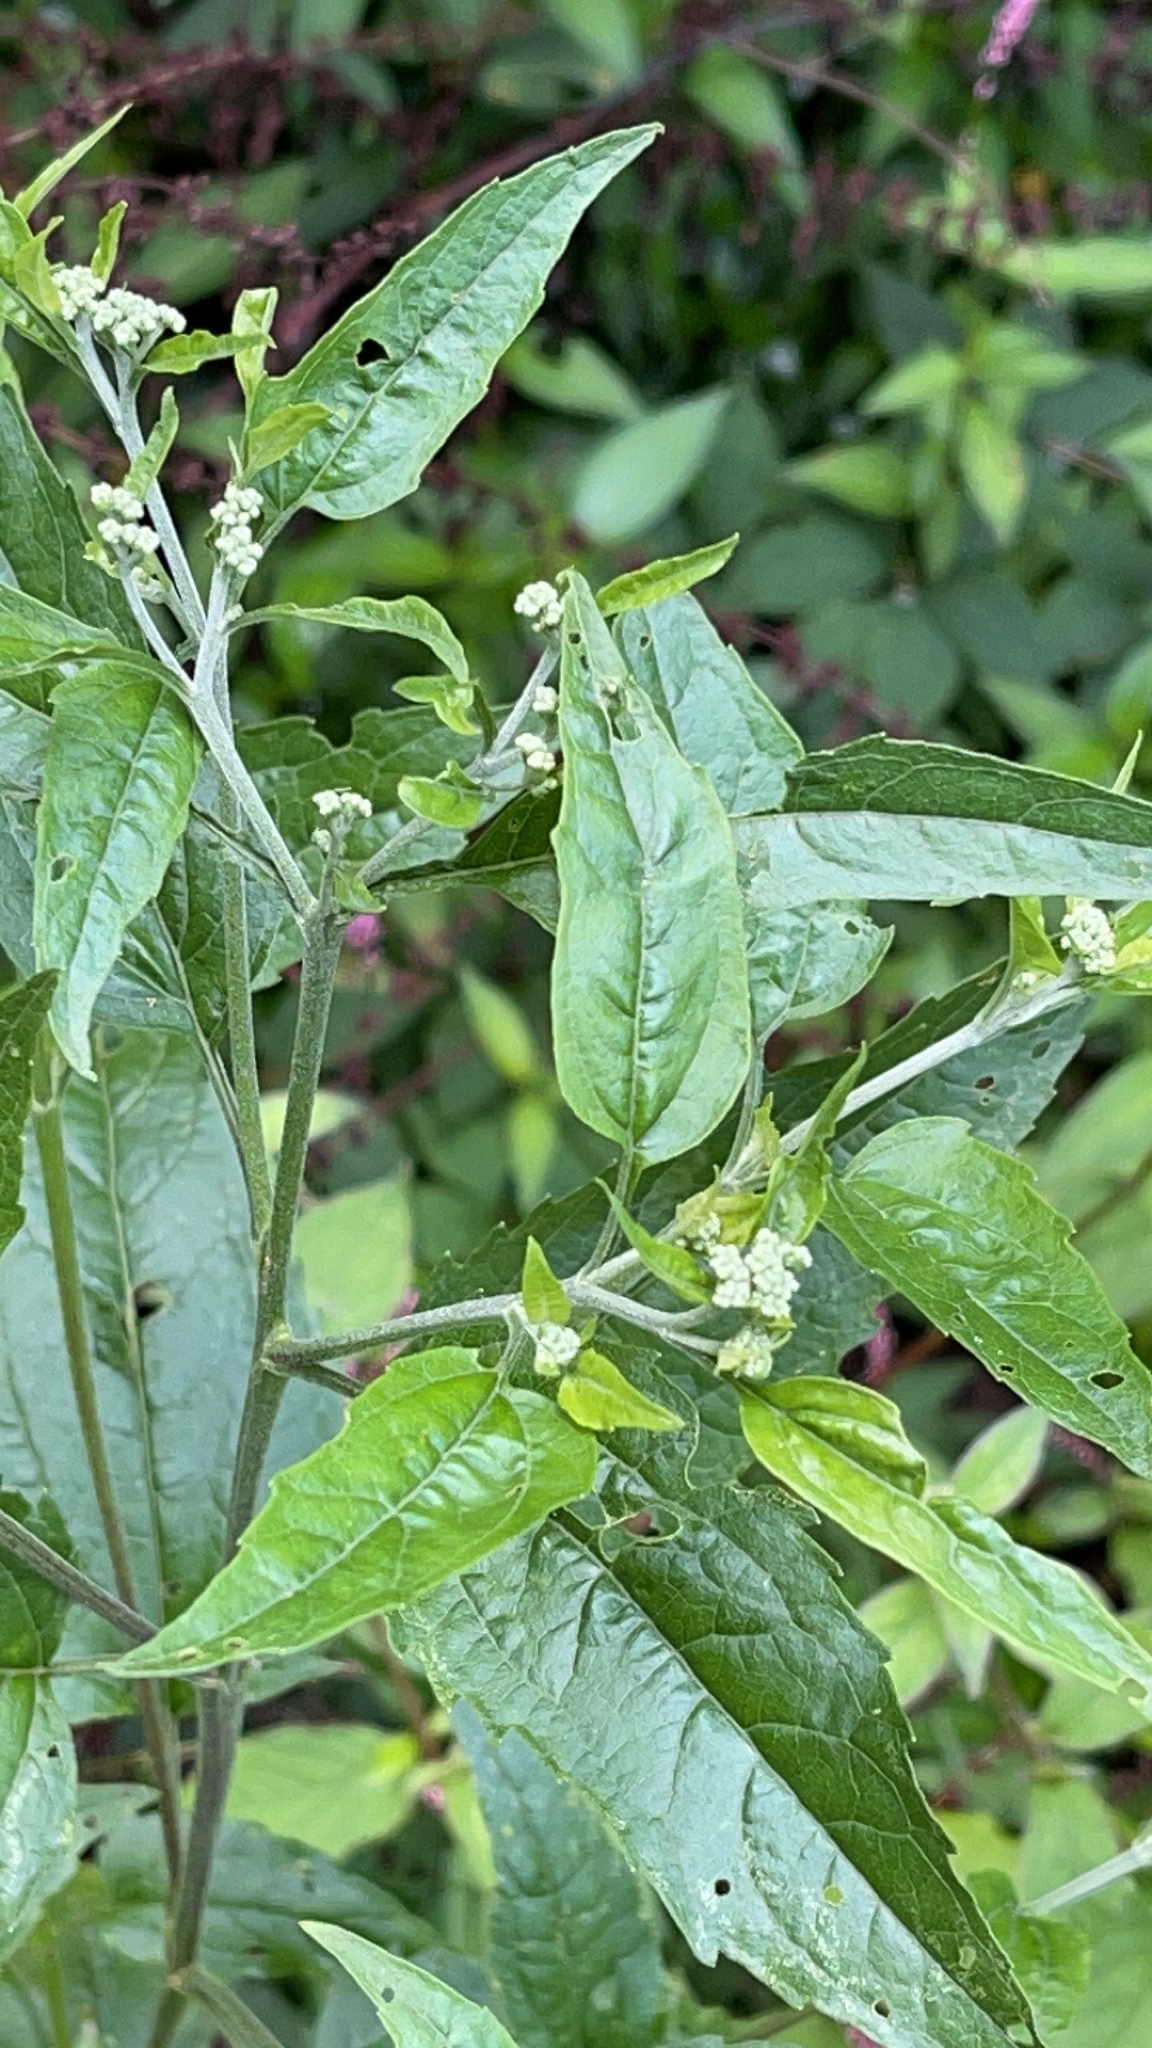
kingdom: Plantae
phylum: Tracheophyta
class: Magnoliopsida
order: Asterales
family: Asteraceae
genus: Eupatorium
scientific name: Eupatorium serotinum
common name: Late boneset
